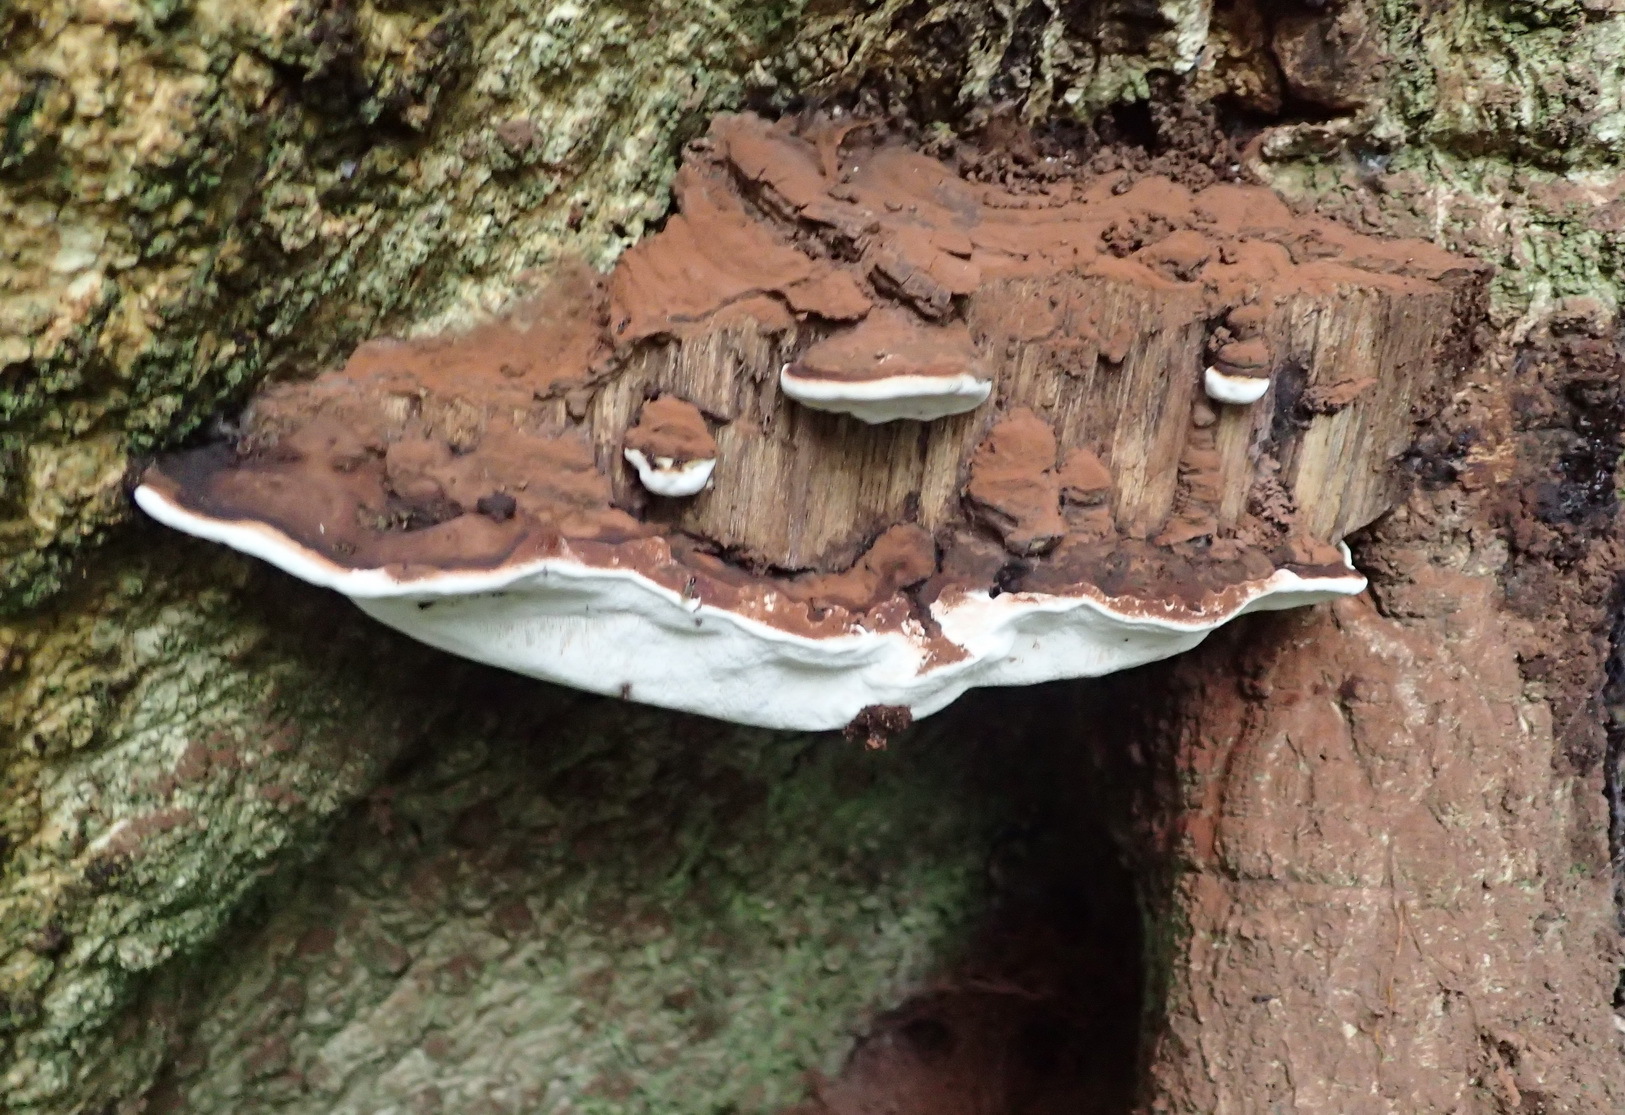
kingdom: Fungi
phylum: Basidiomycota
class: Agaricomycetes
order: Polyporales
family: Polyporaceae
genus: Ganoderma
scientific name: Ganoderma applanatum
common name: Artist's bracket
